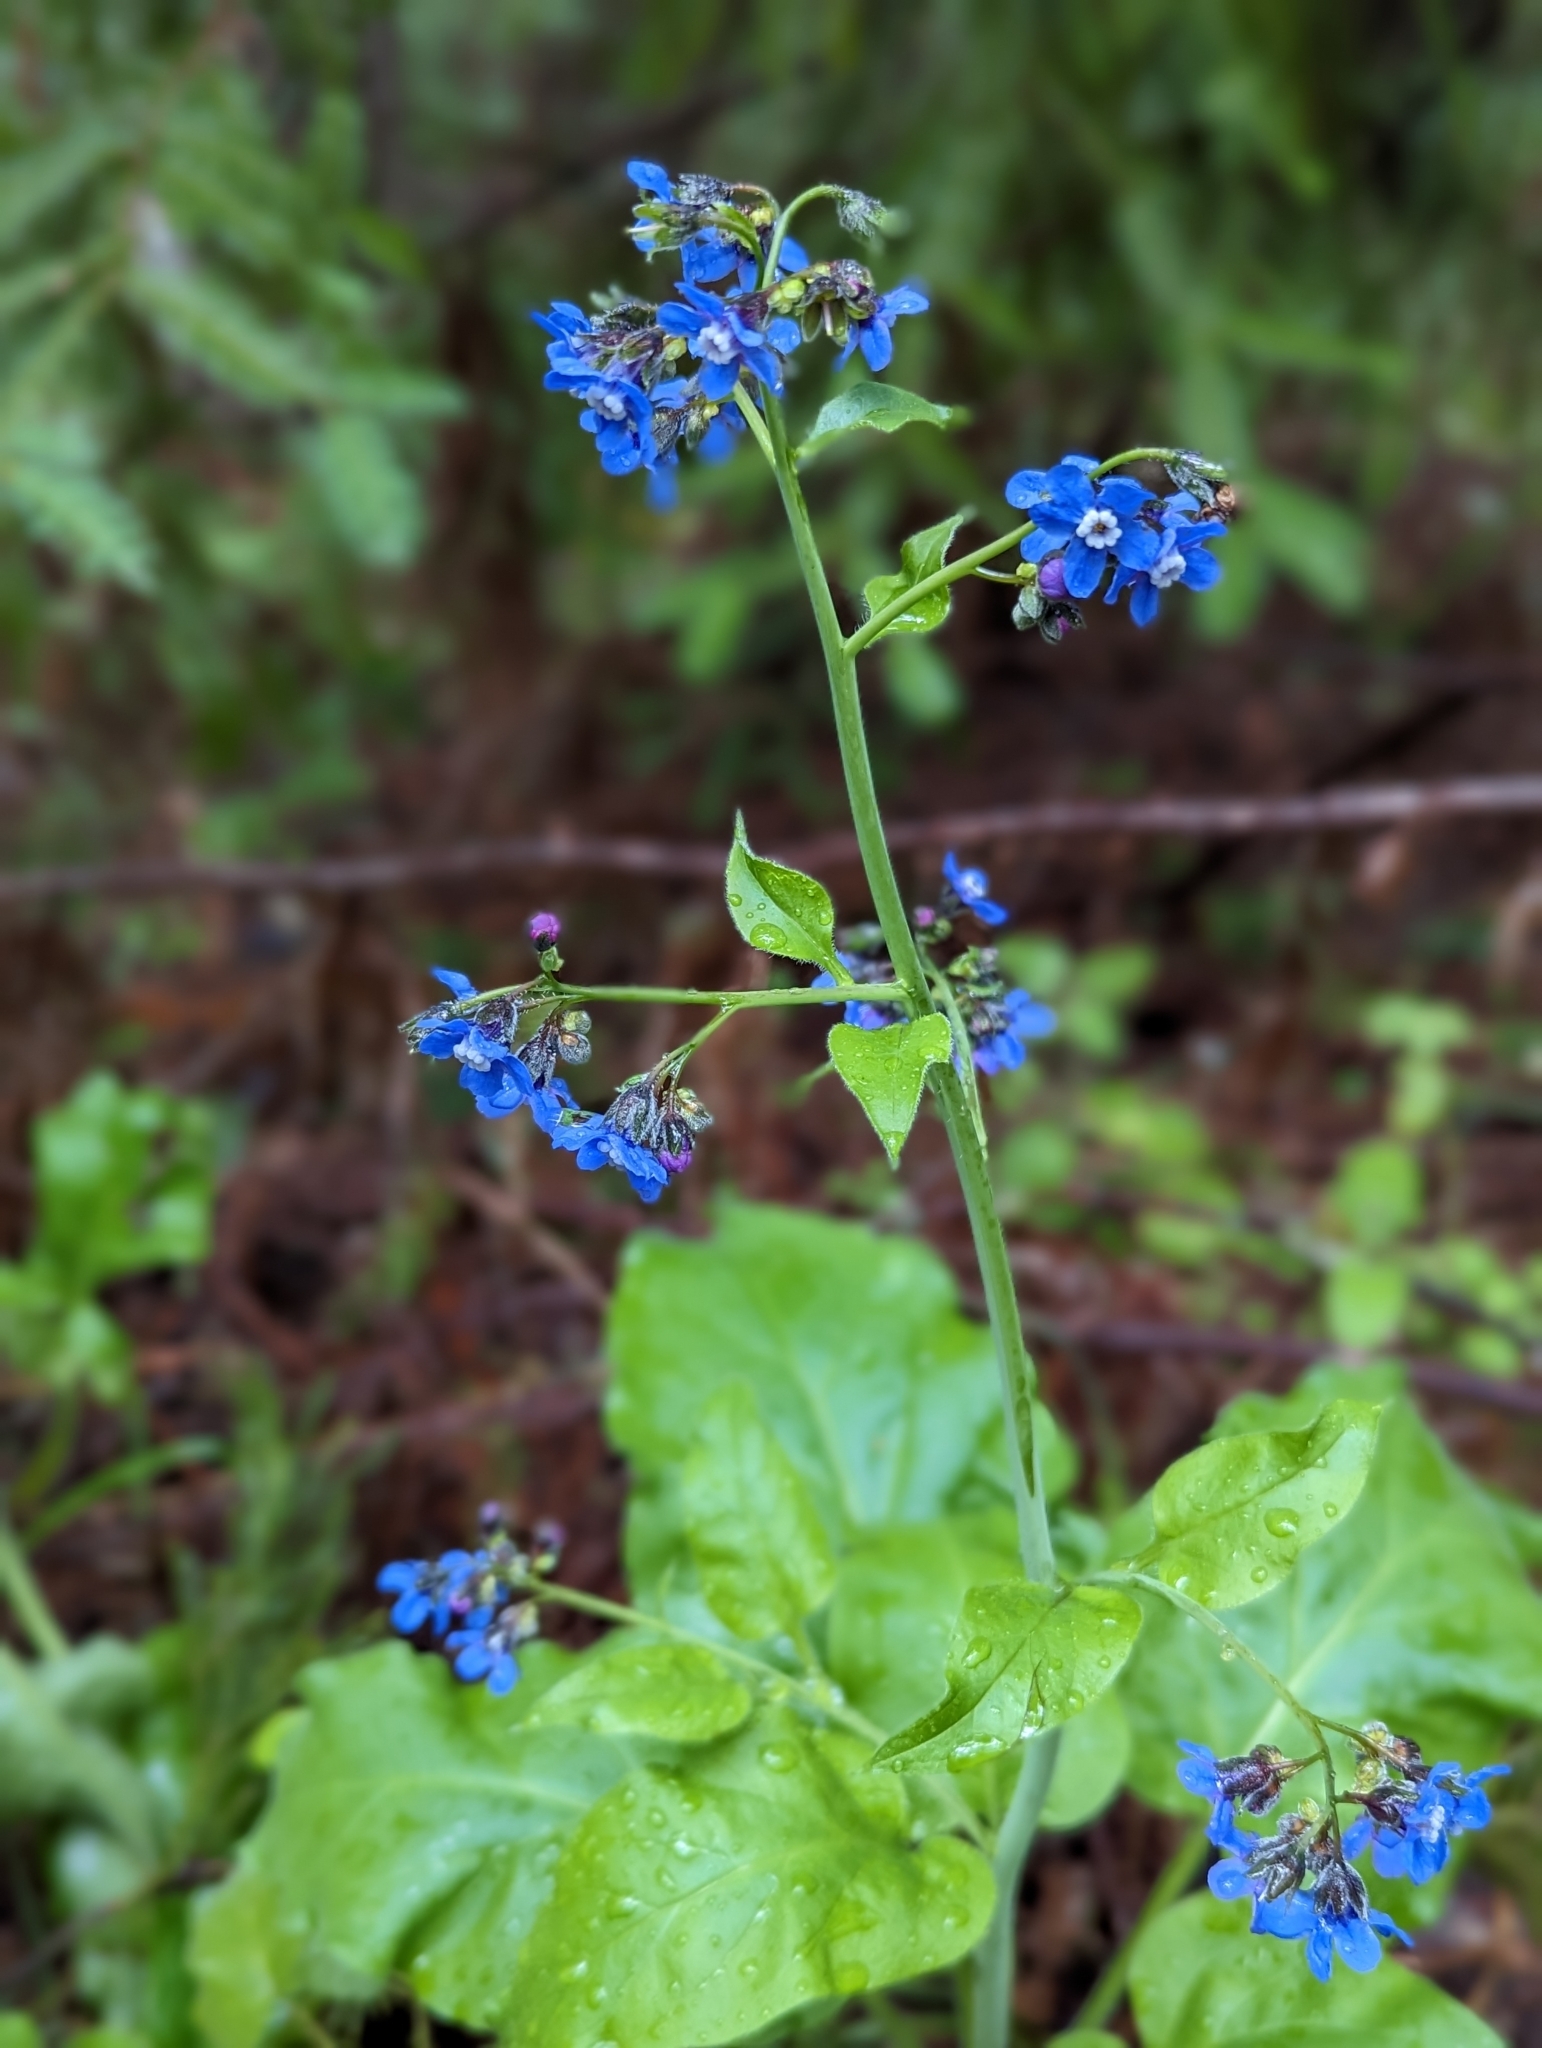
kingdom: Plantae
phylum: Tracheophyta
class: Magnoliopsida
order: Boraginales
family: Boraginaceae
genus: Adelinia
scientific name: Adelinia grande
